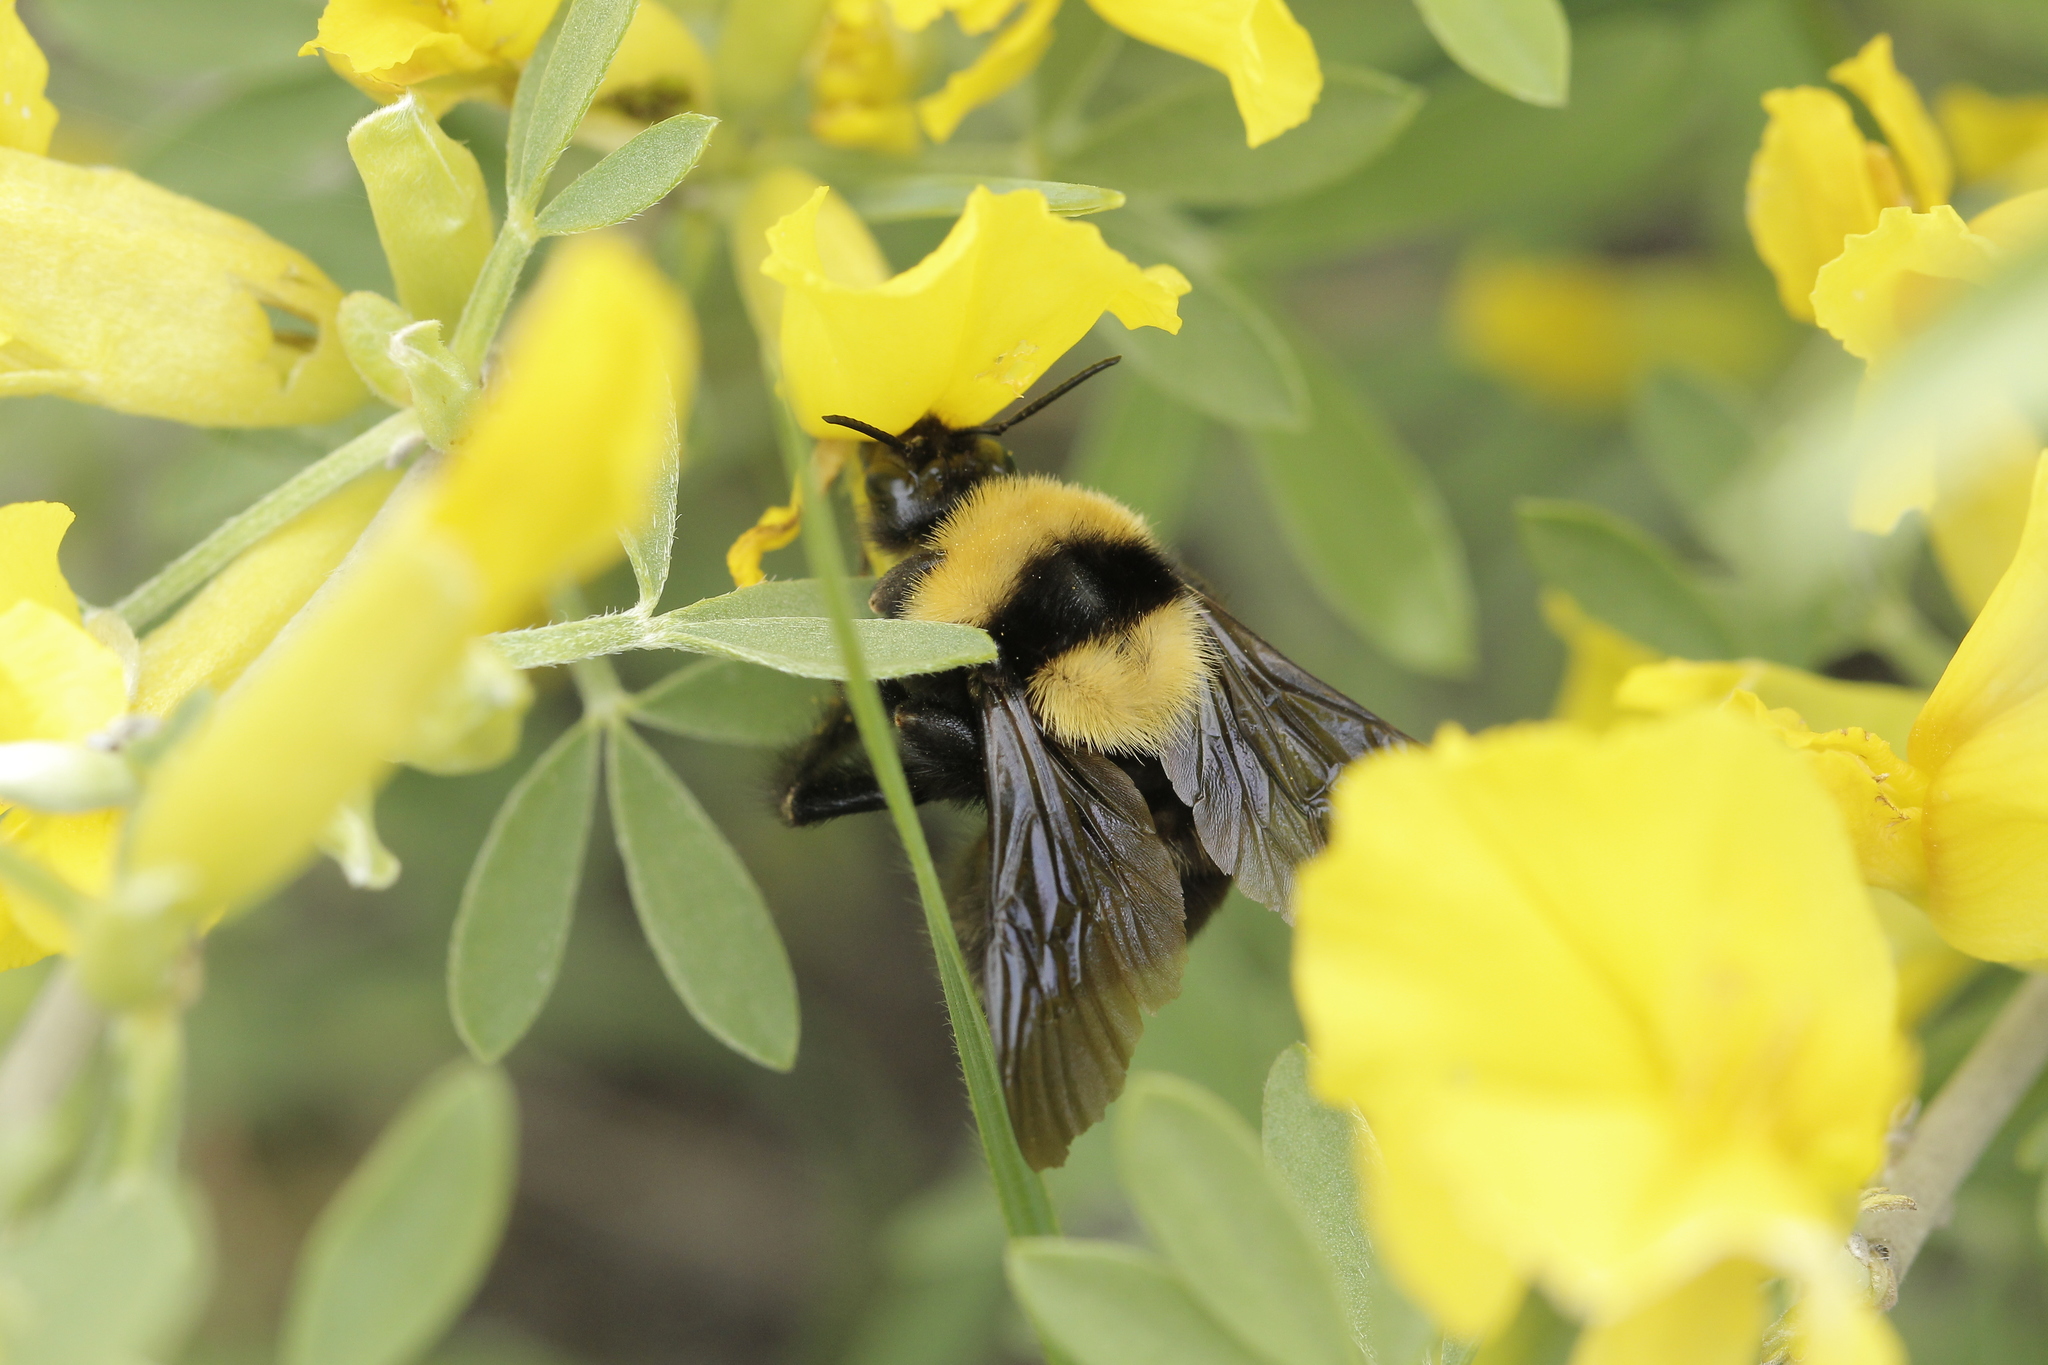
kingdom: Animalia
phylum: Arthropoda
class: Insecta
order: Hymenoptera
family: Apidae
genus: Bombus
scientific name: Bombus argillaceus
